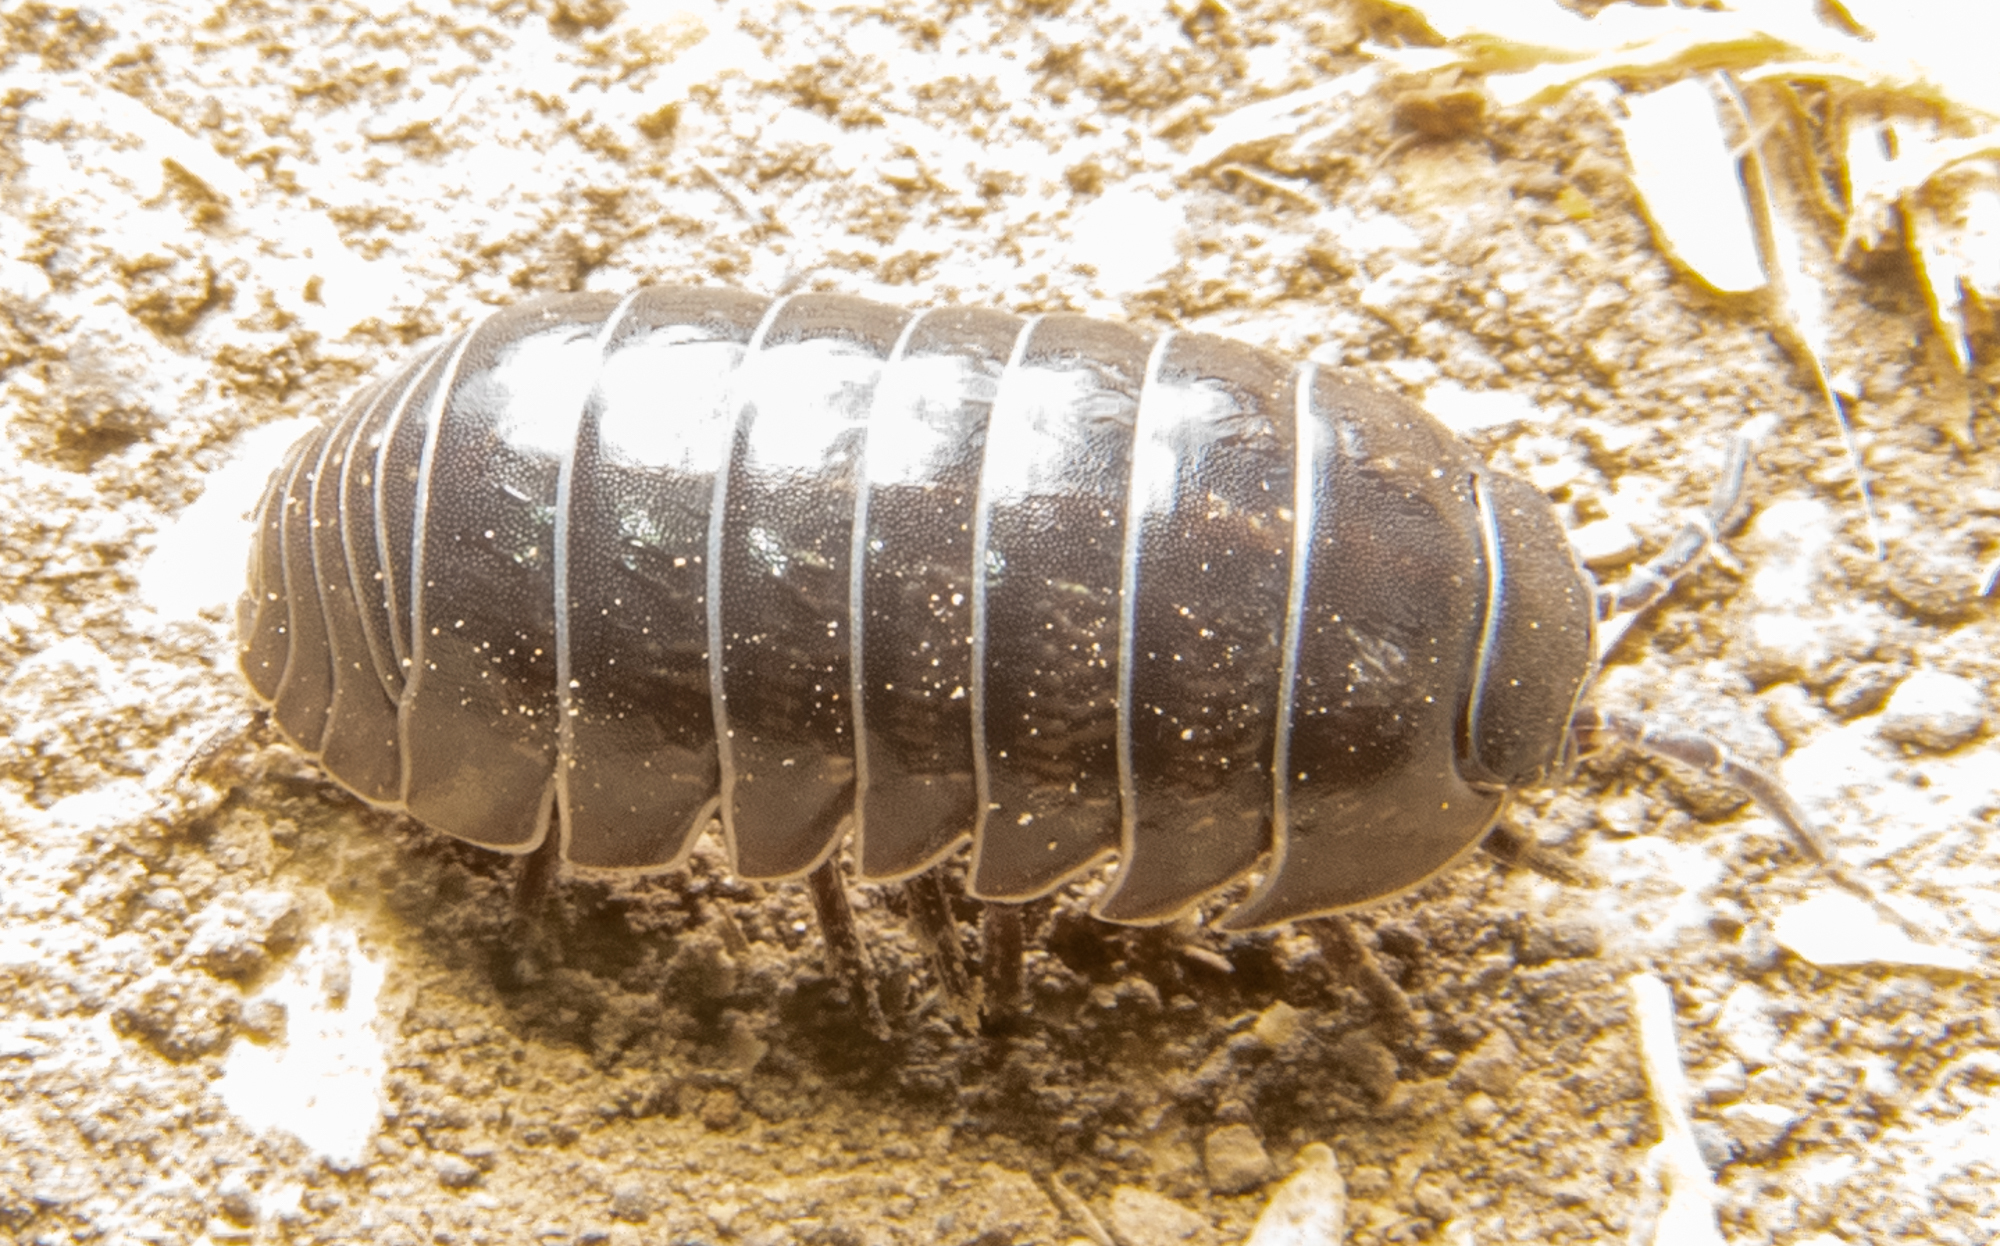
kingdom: Animalia
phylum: Arthropoda
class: Malacostraca
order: Isopoda
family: Armadillidiidae
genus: Armadillidium
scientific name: Armadillidium vulgare
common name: Common pill woodlouse
